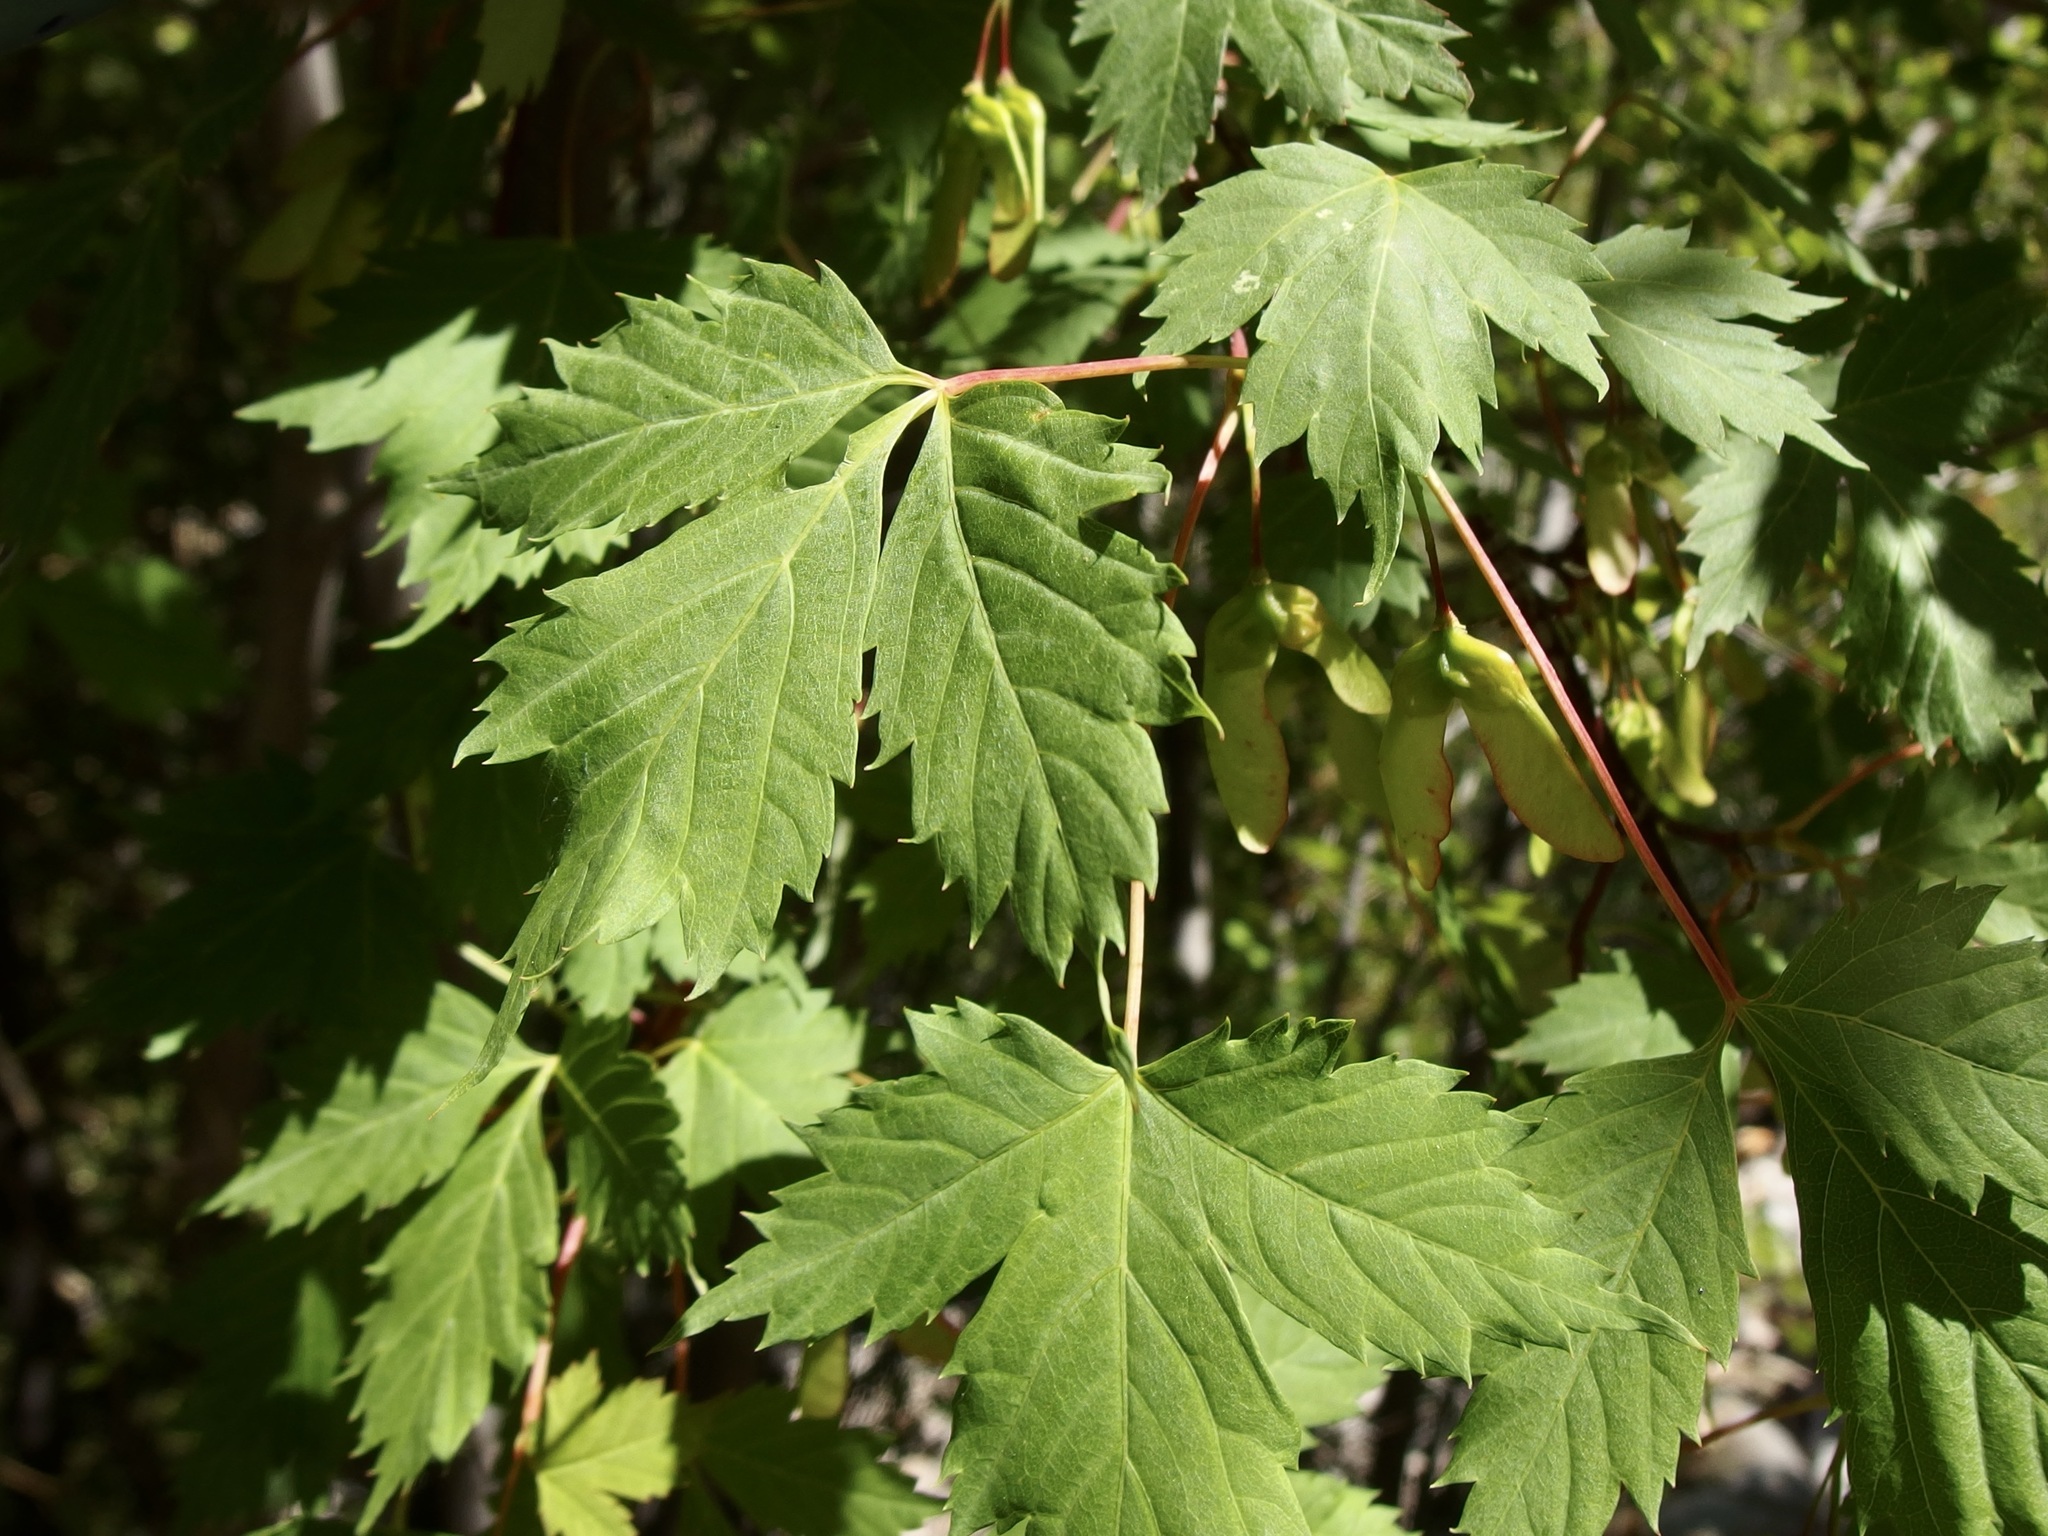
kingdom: Plantae
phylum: Tracheophyta
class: Magnoliopsida
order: Sapindales
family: Sapindaceae
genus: Acer
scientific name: Acer glabrum
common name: Rocky mountain maple
